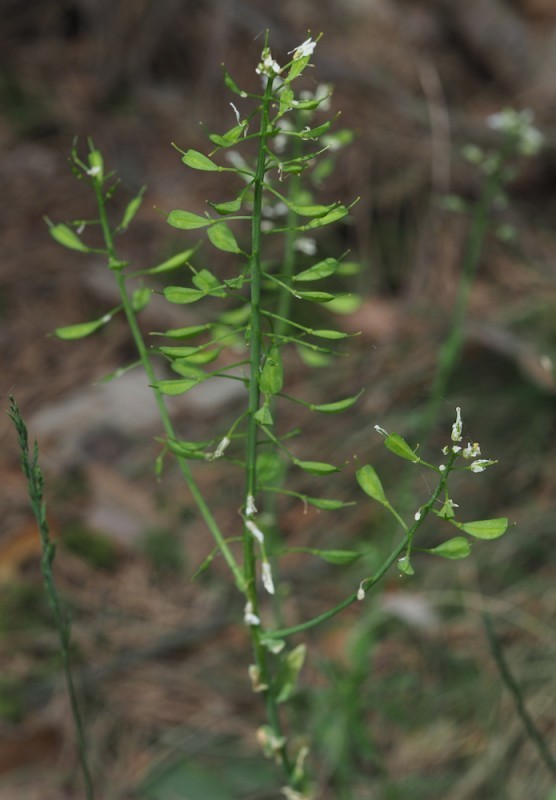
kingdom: Plantae
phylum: Tracheophyta
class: Magnoliopsida
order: Brassicales
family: Brassicaceae
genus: Noccaea
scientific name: Noccaea goesingensis
